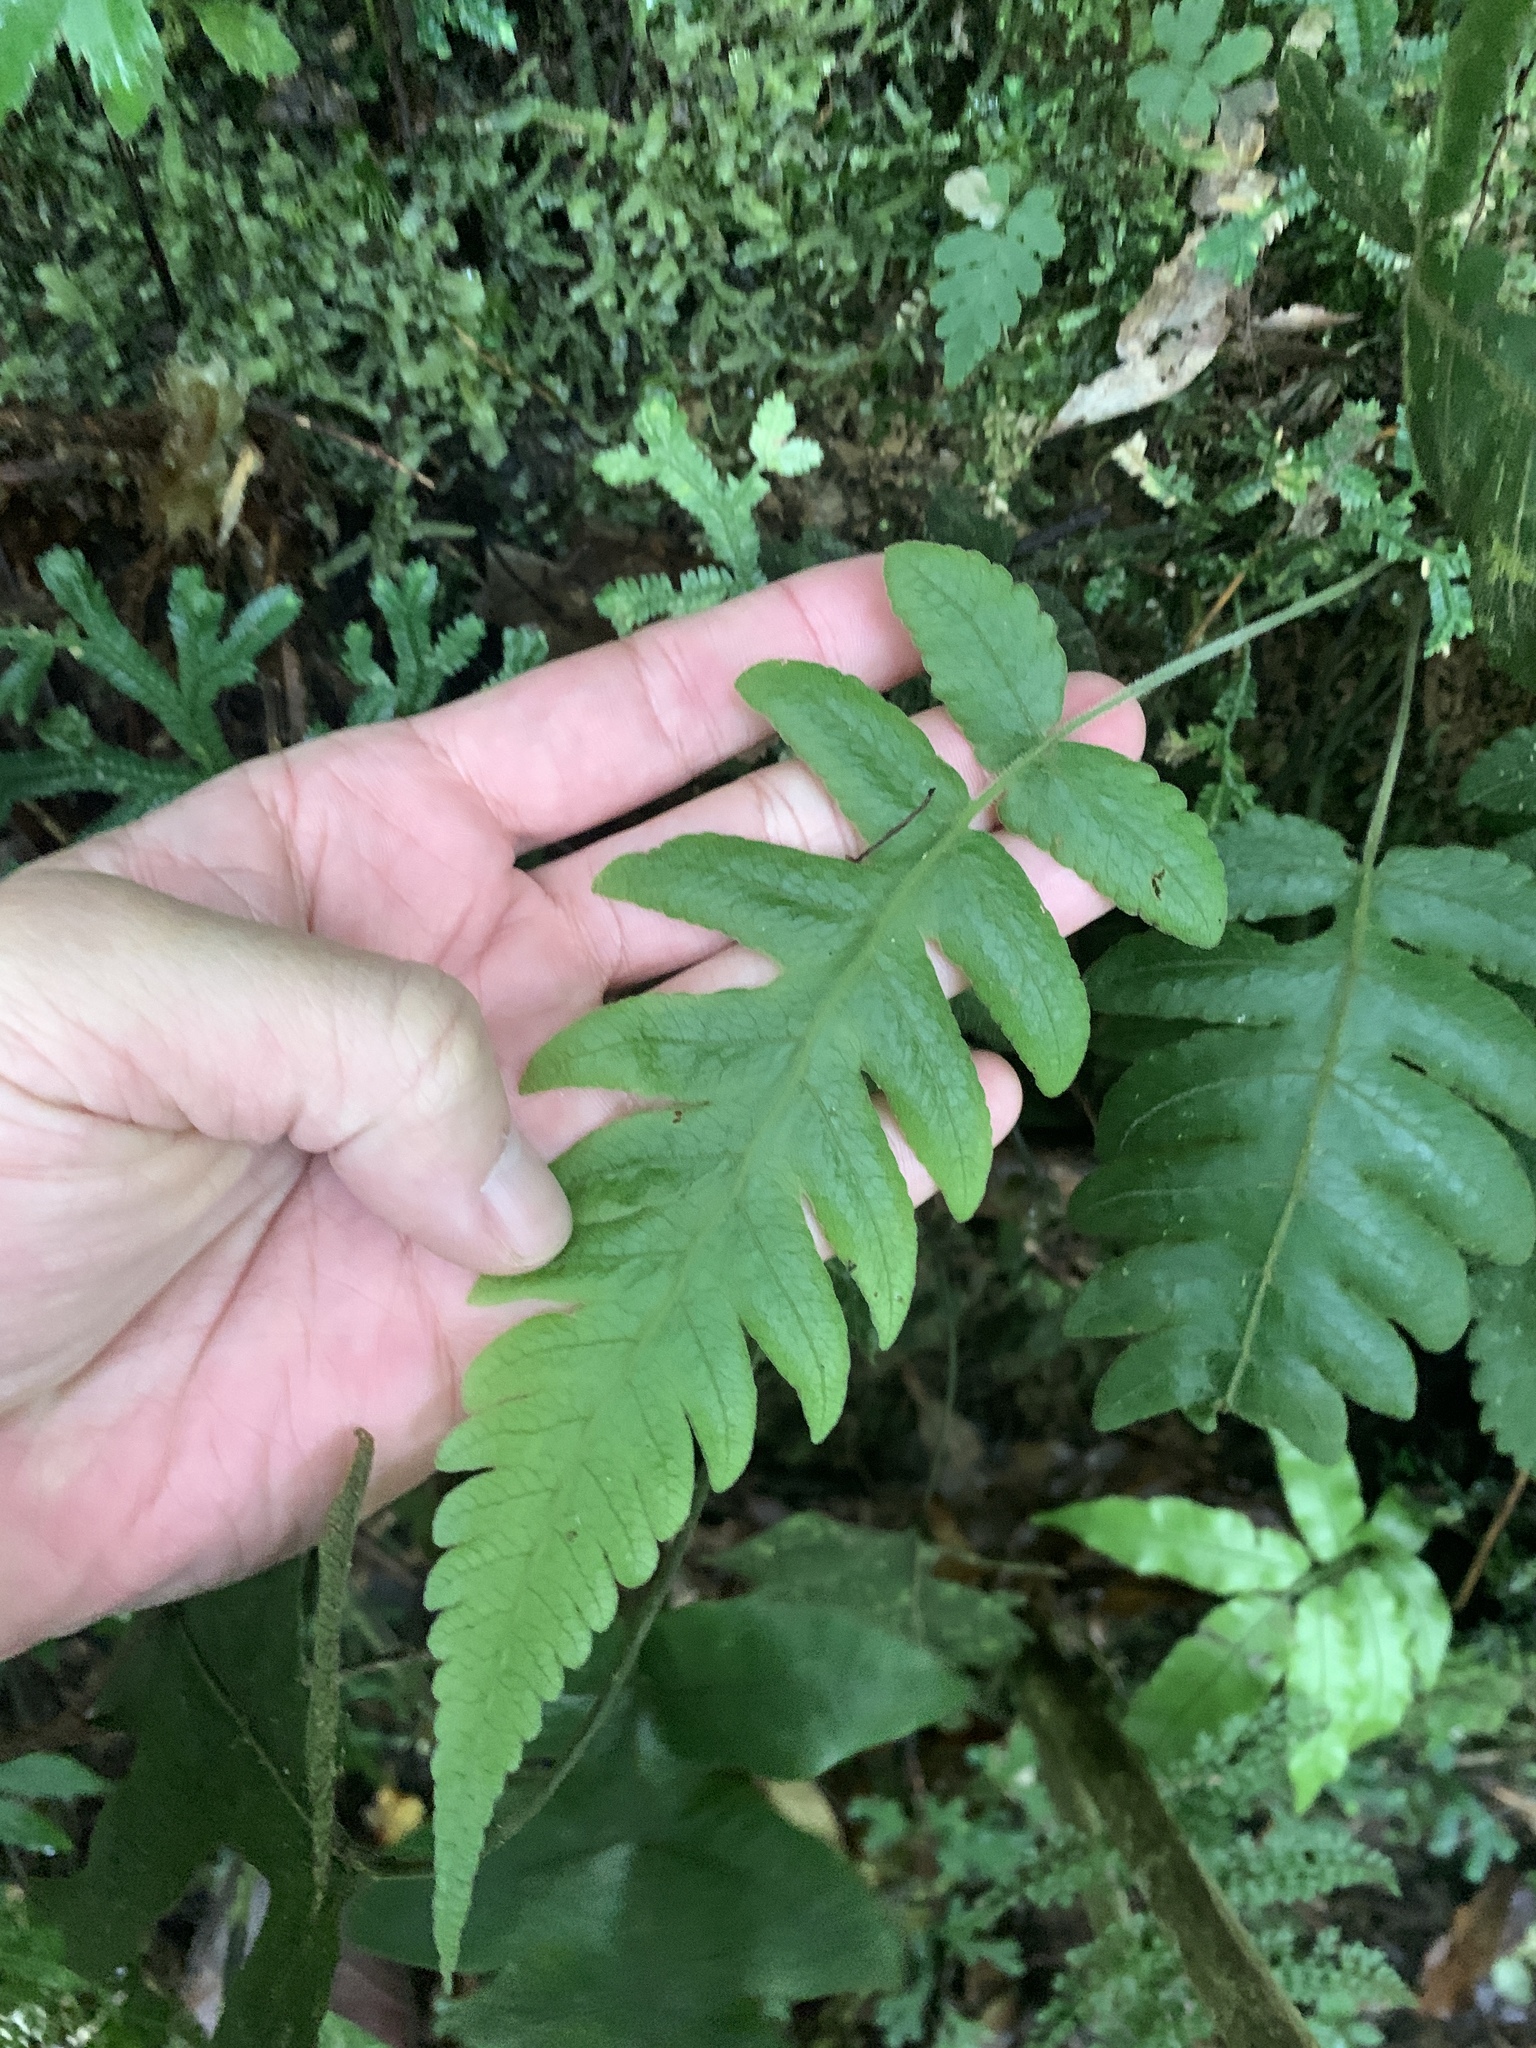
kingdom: Plantae
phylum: Tracheophyta
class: Polypodiopsida
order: Polypodiales
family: Thelypteridaceae
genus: Stegnogramma
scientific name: Stegnogramma dictyoclinoides
